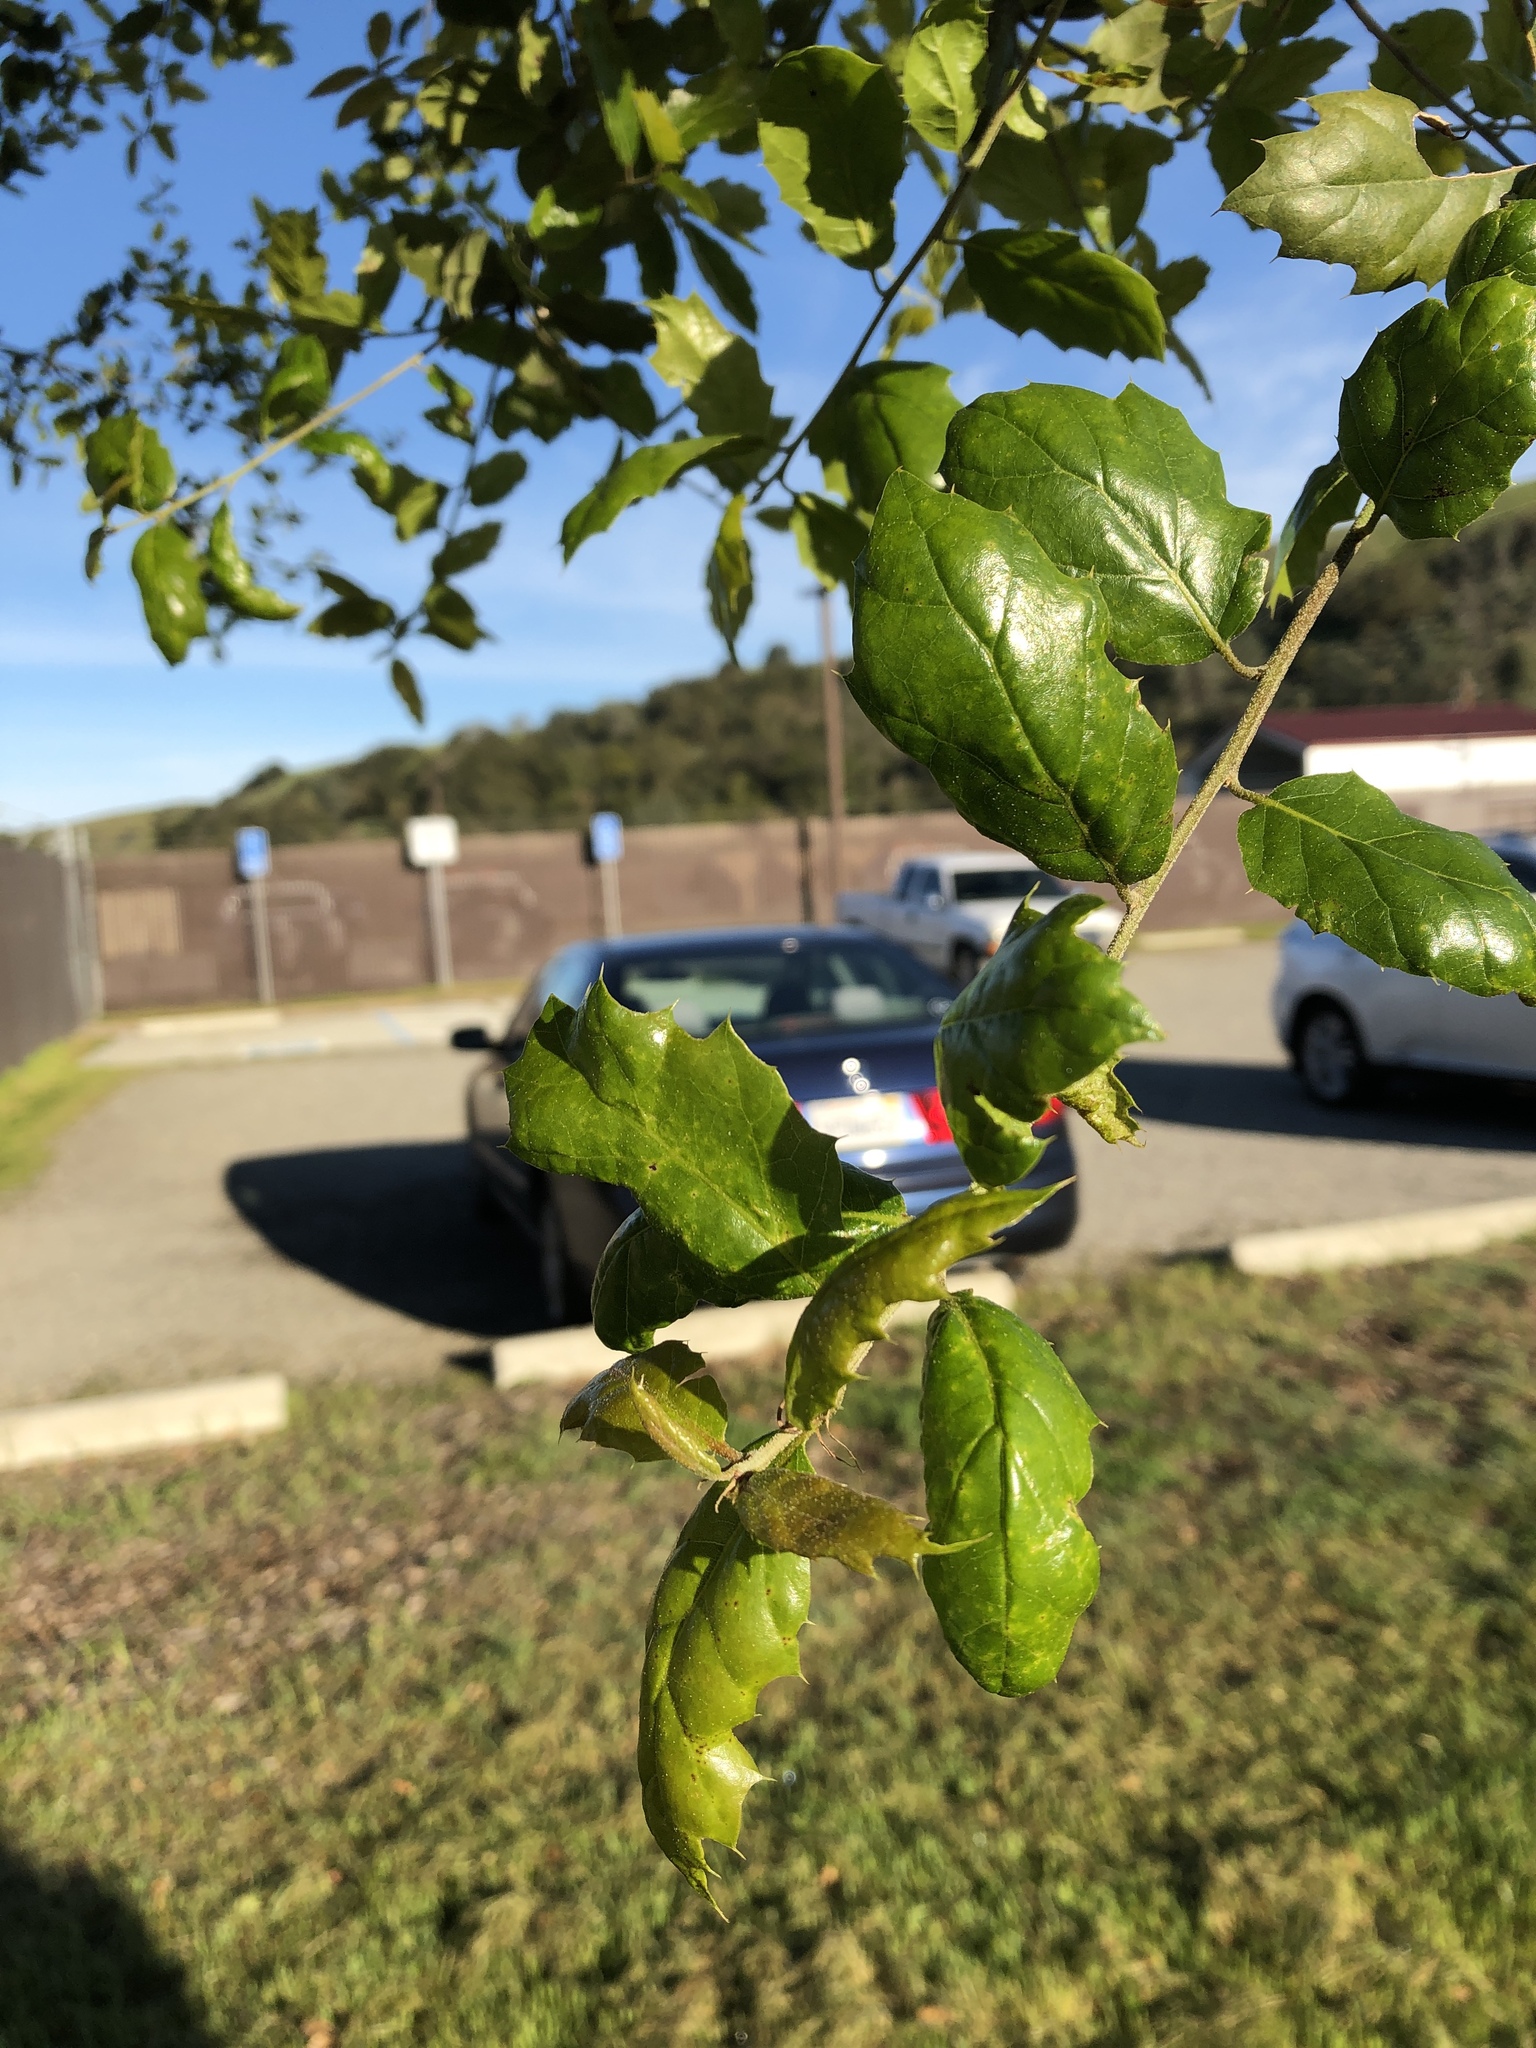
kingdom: Plantae
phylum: Tracheophyta
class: Magnoliopsida
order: Fagales
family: Fagaceae
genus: Quercus
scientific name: Quercus agrifolia
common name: California live oak
